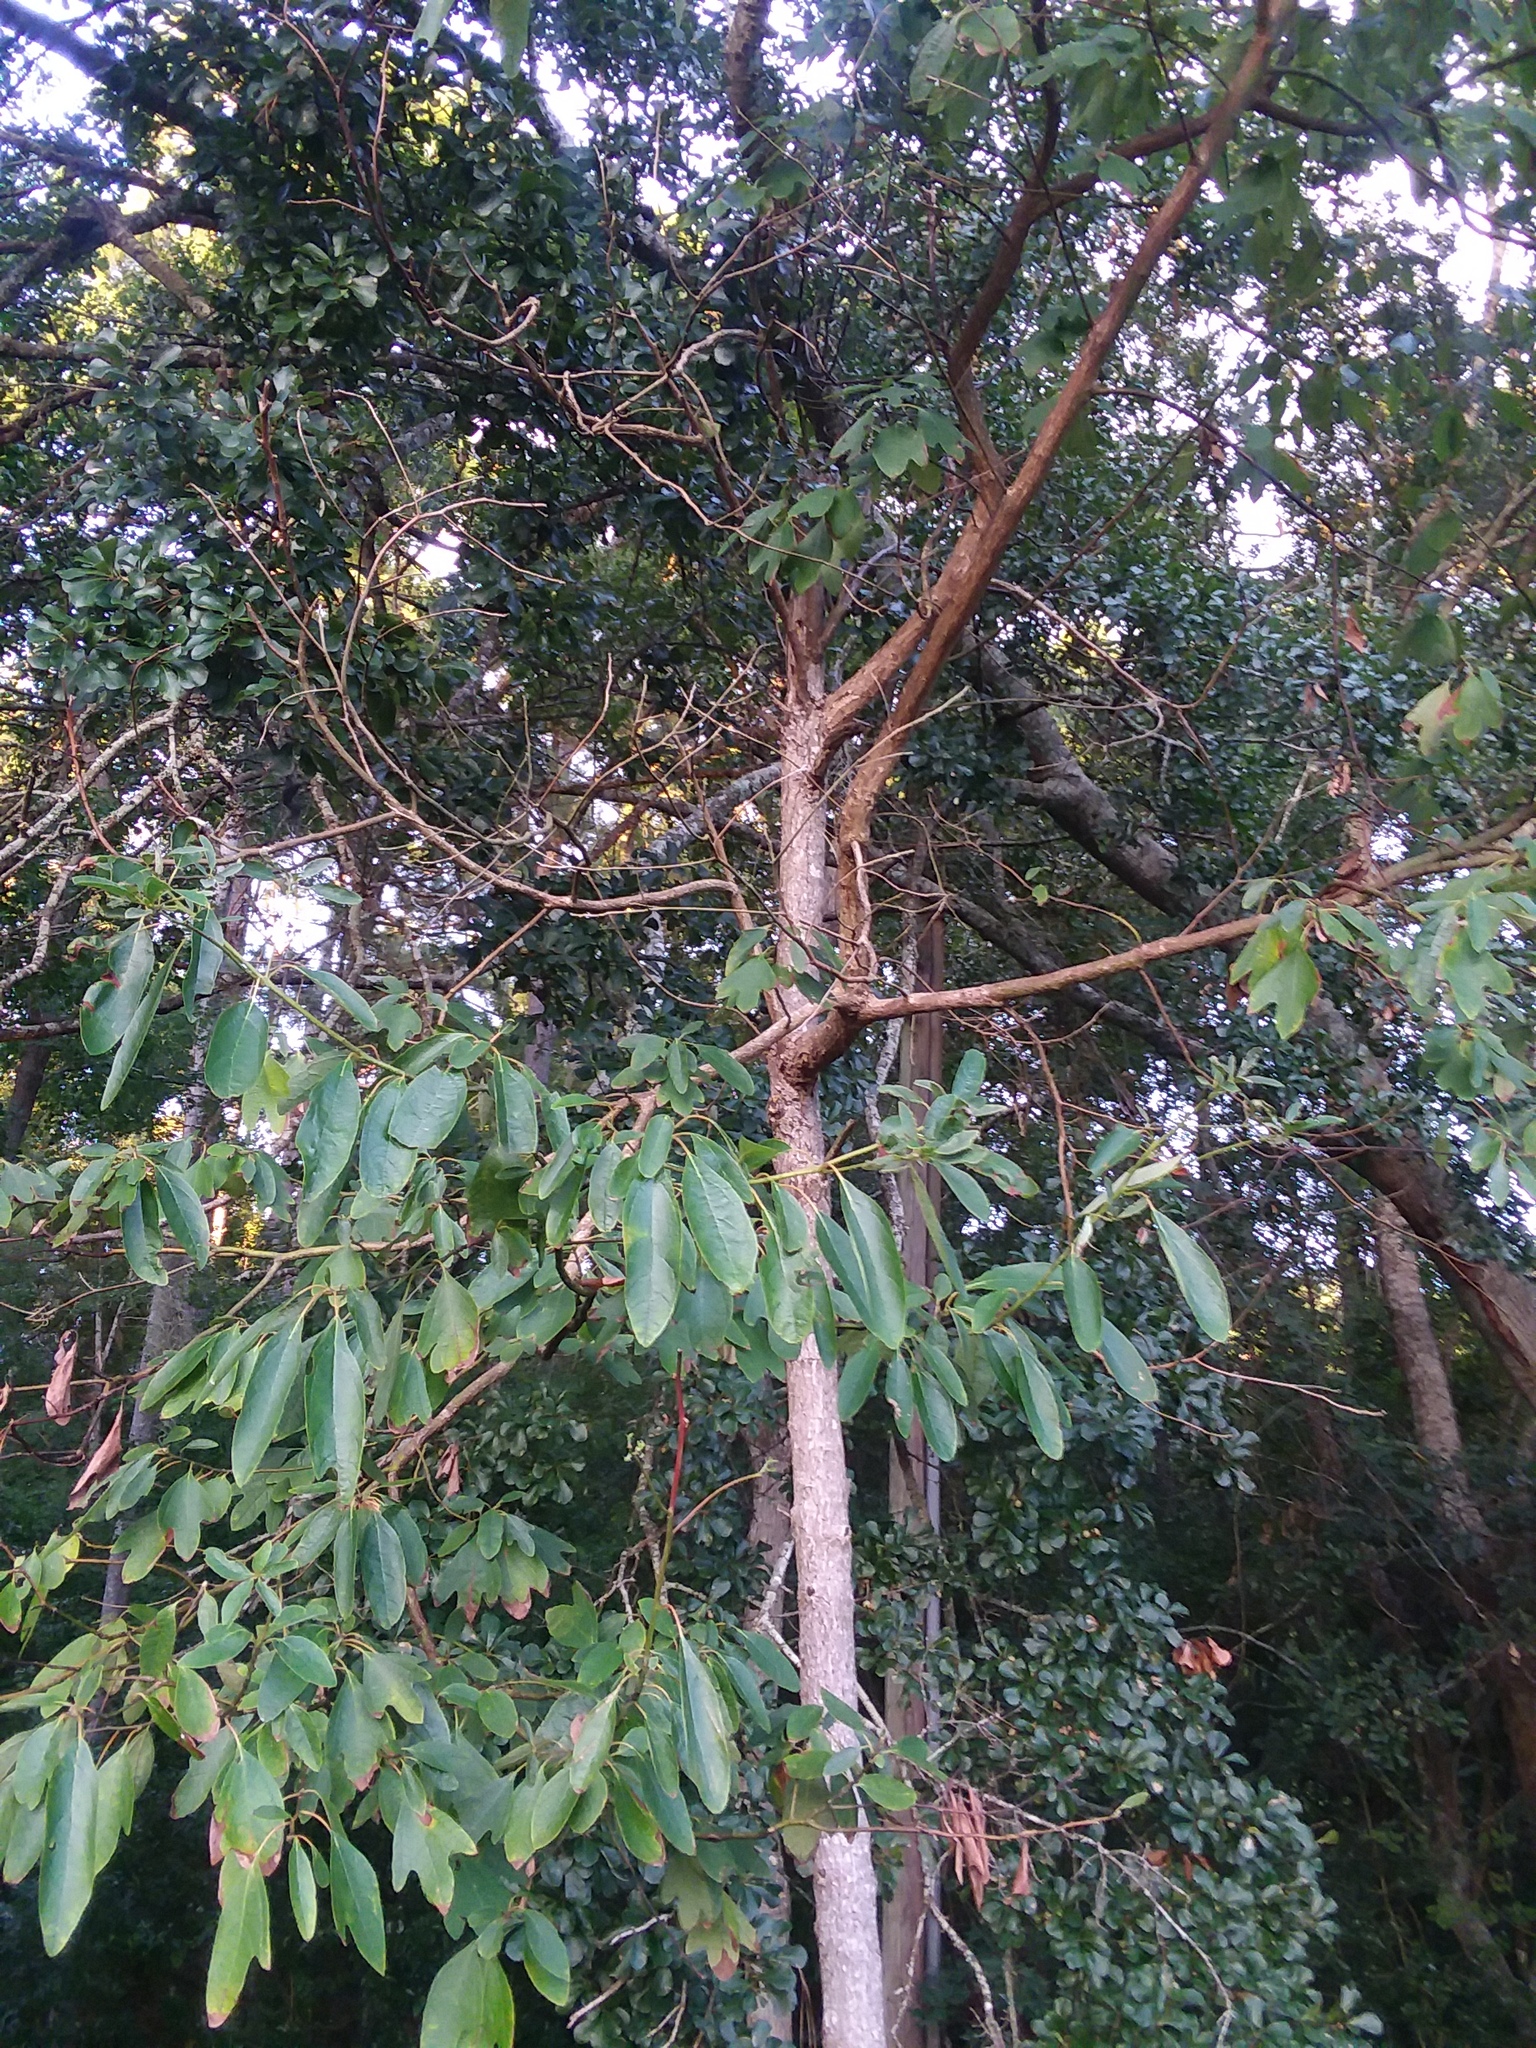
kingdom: Plantae
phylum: Tracheophyta
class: Magnoliopsida
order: Laurales
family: Lauraceae
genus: Sassafras
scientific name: Sassafras albidum
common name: Sassafras
